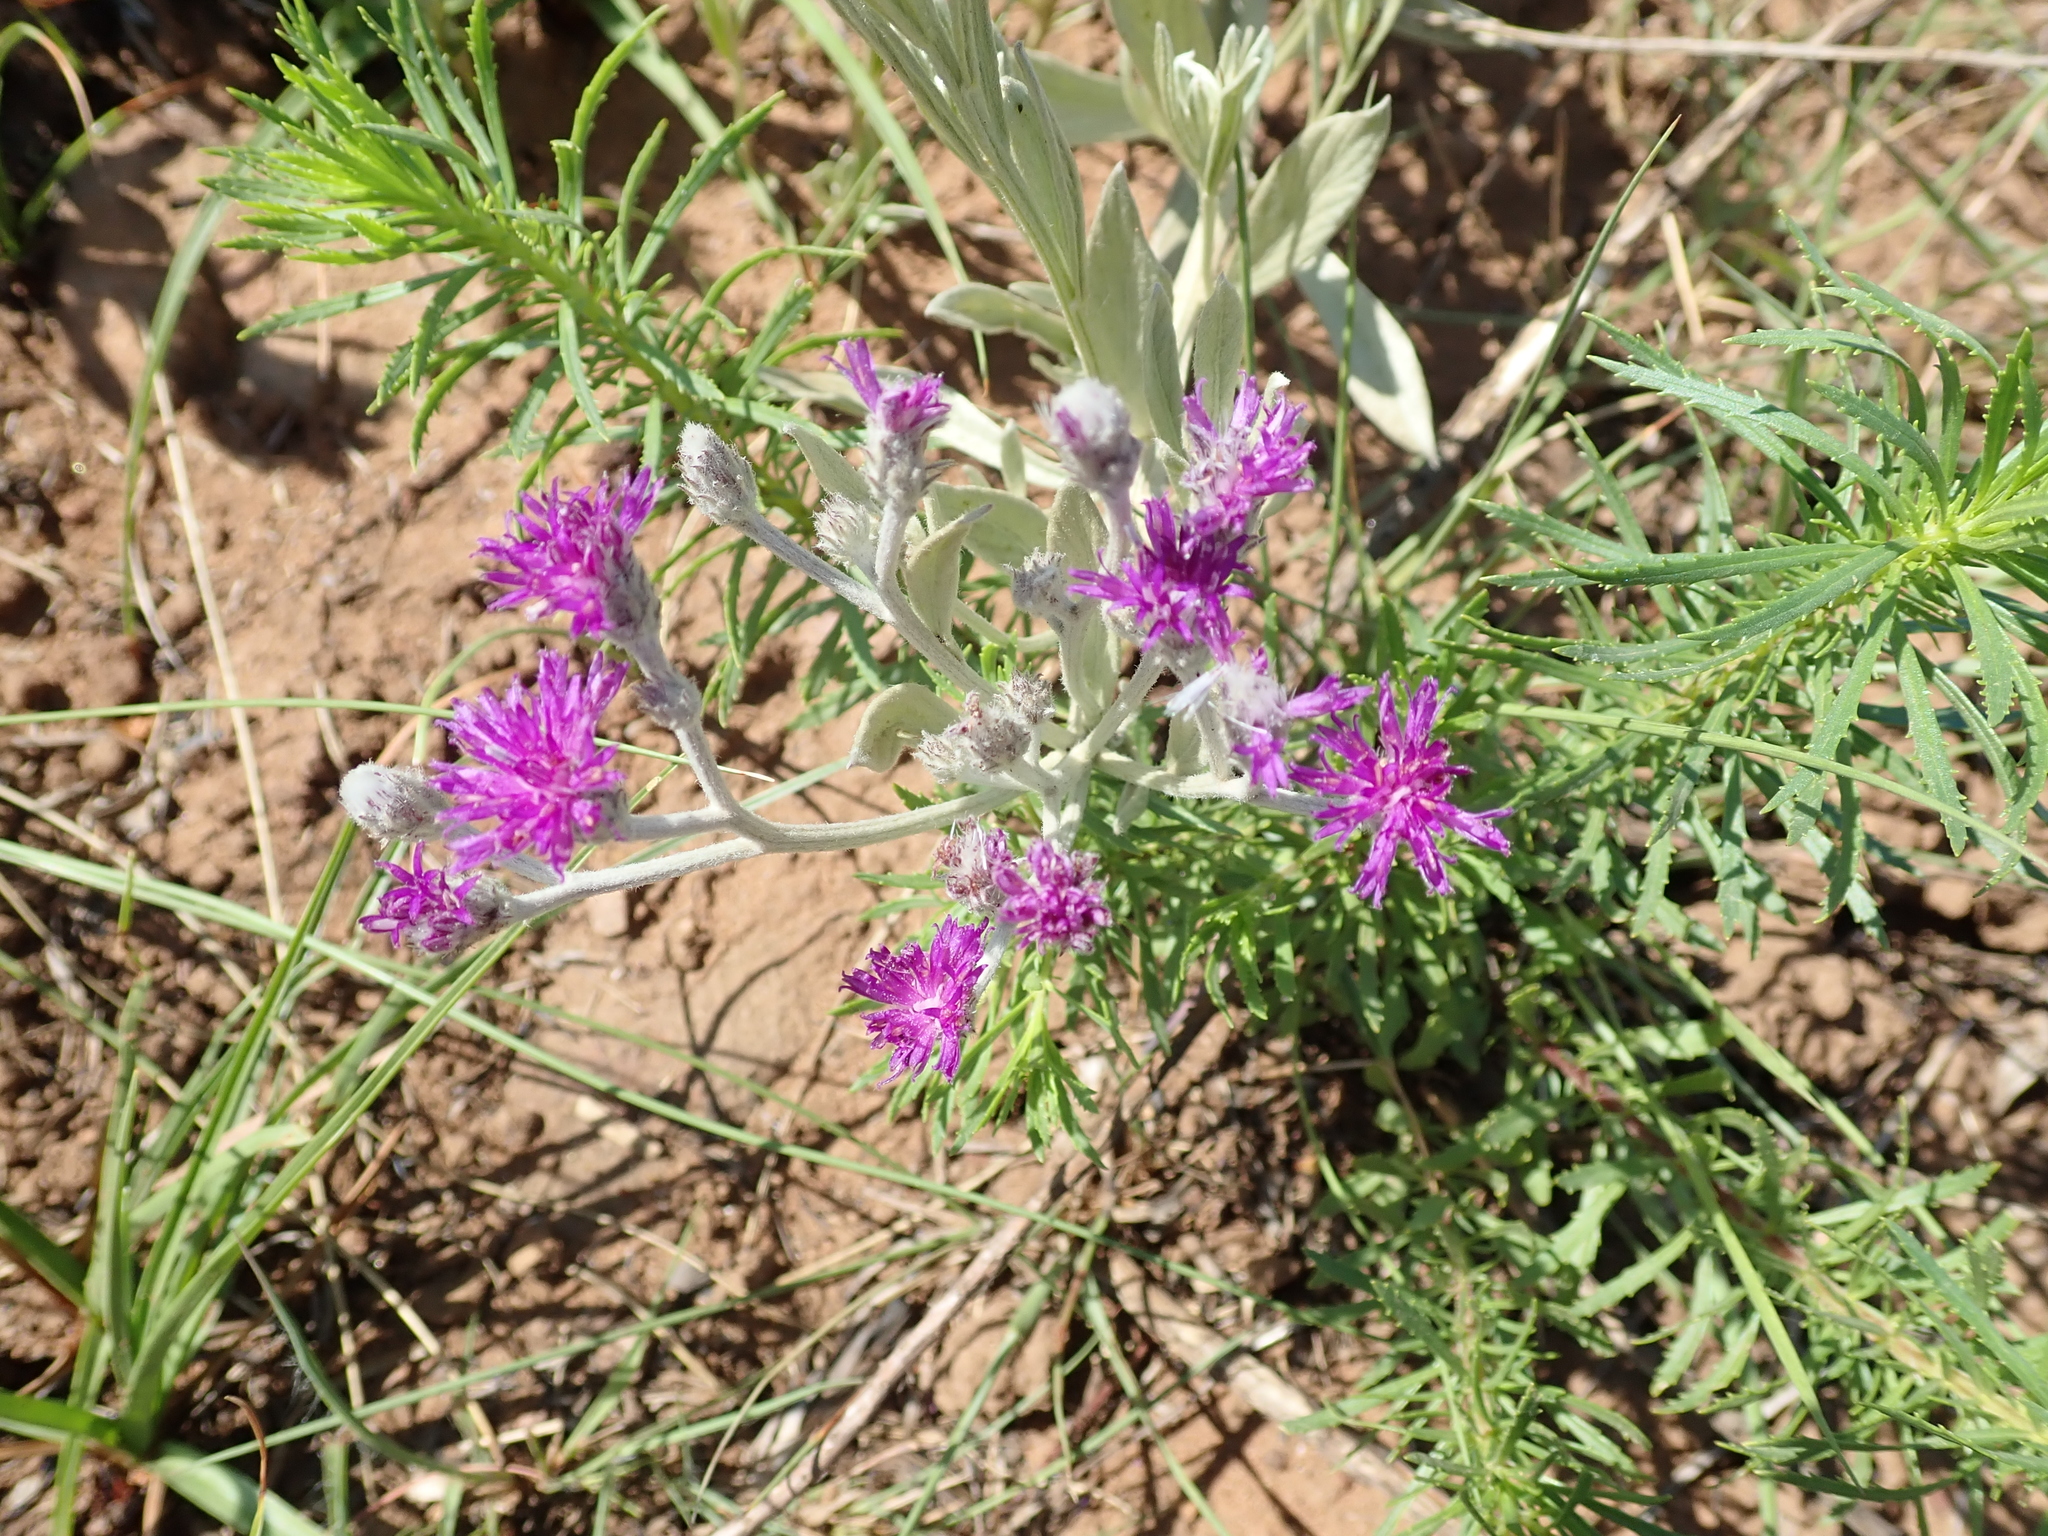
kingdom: Plantae
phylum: Tracheophyta
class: Magnoliopsida
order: Asterales
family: Asteraceae
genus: Hilliardiella
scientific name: Hilliardiella aristata
